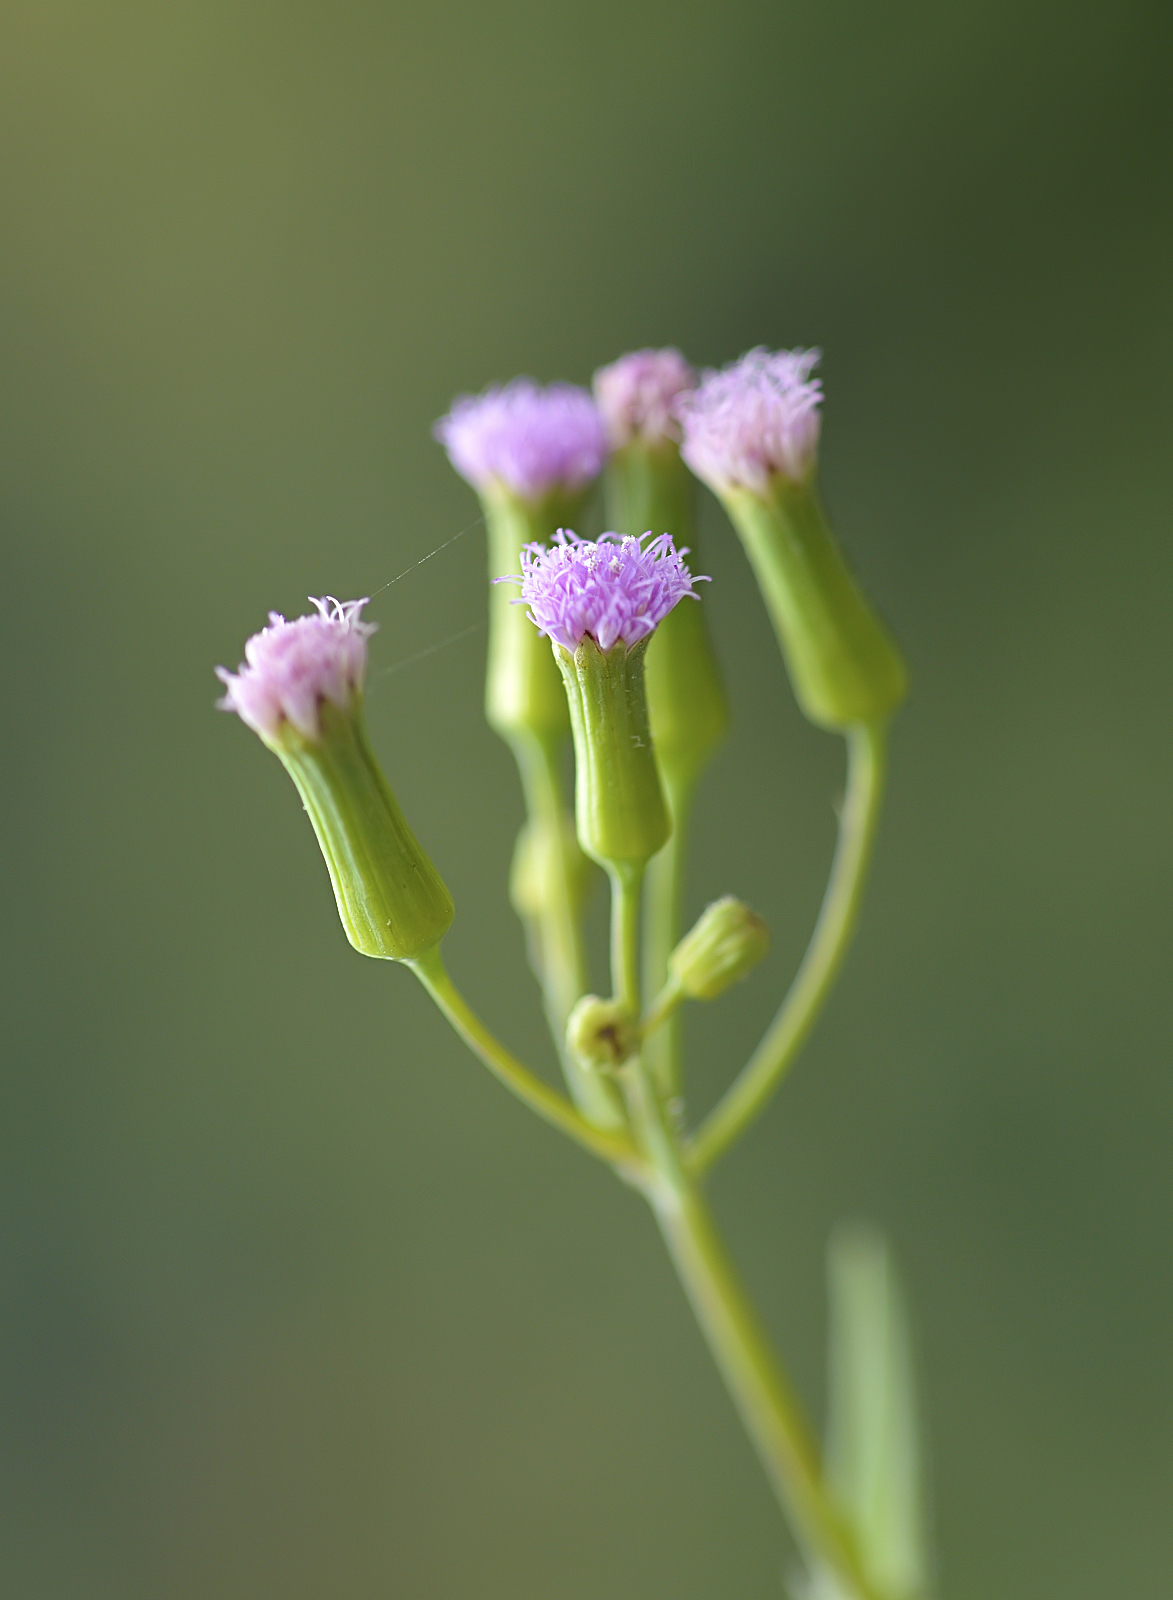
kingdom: Plantae
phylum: Tracheophyta
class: Magnoliopsida
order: Asterales
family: Asteraceae
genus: Emilia
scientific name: Emilia sonchifolia
